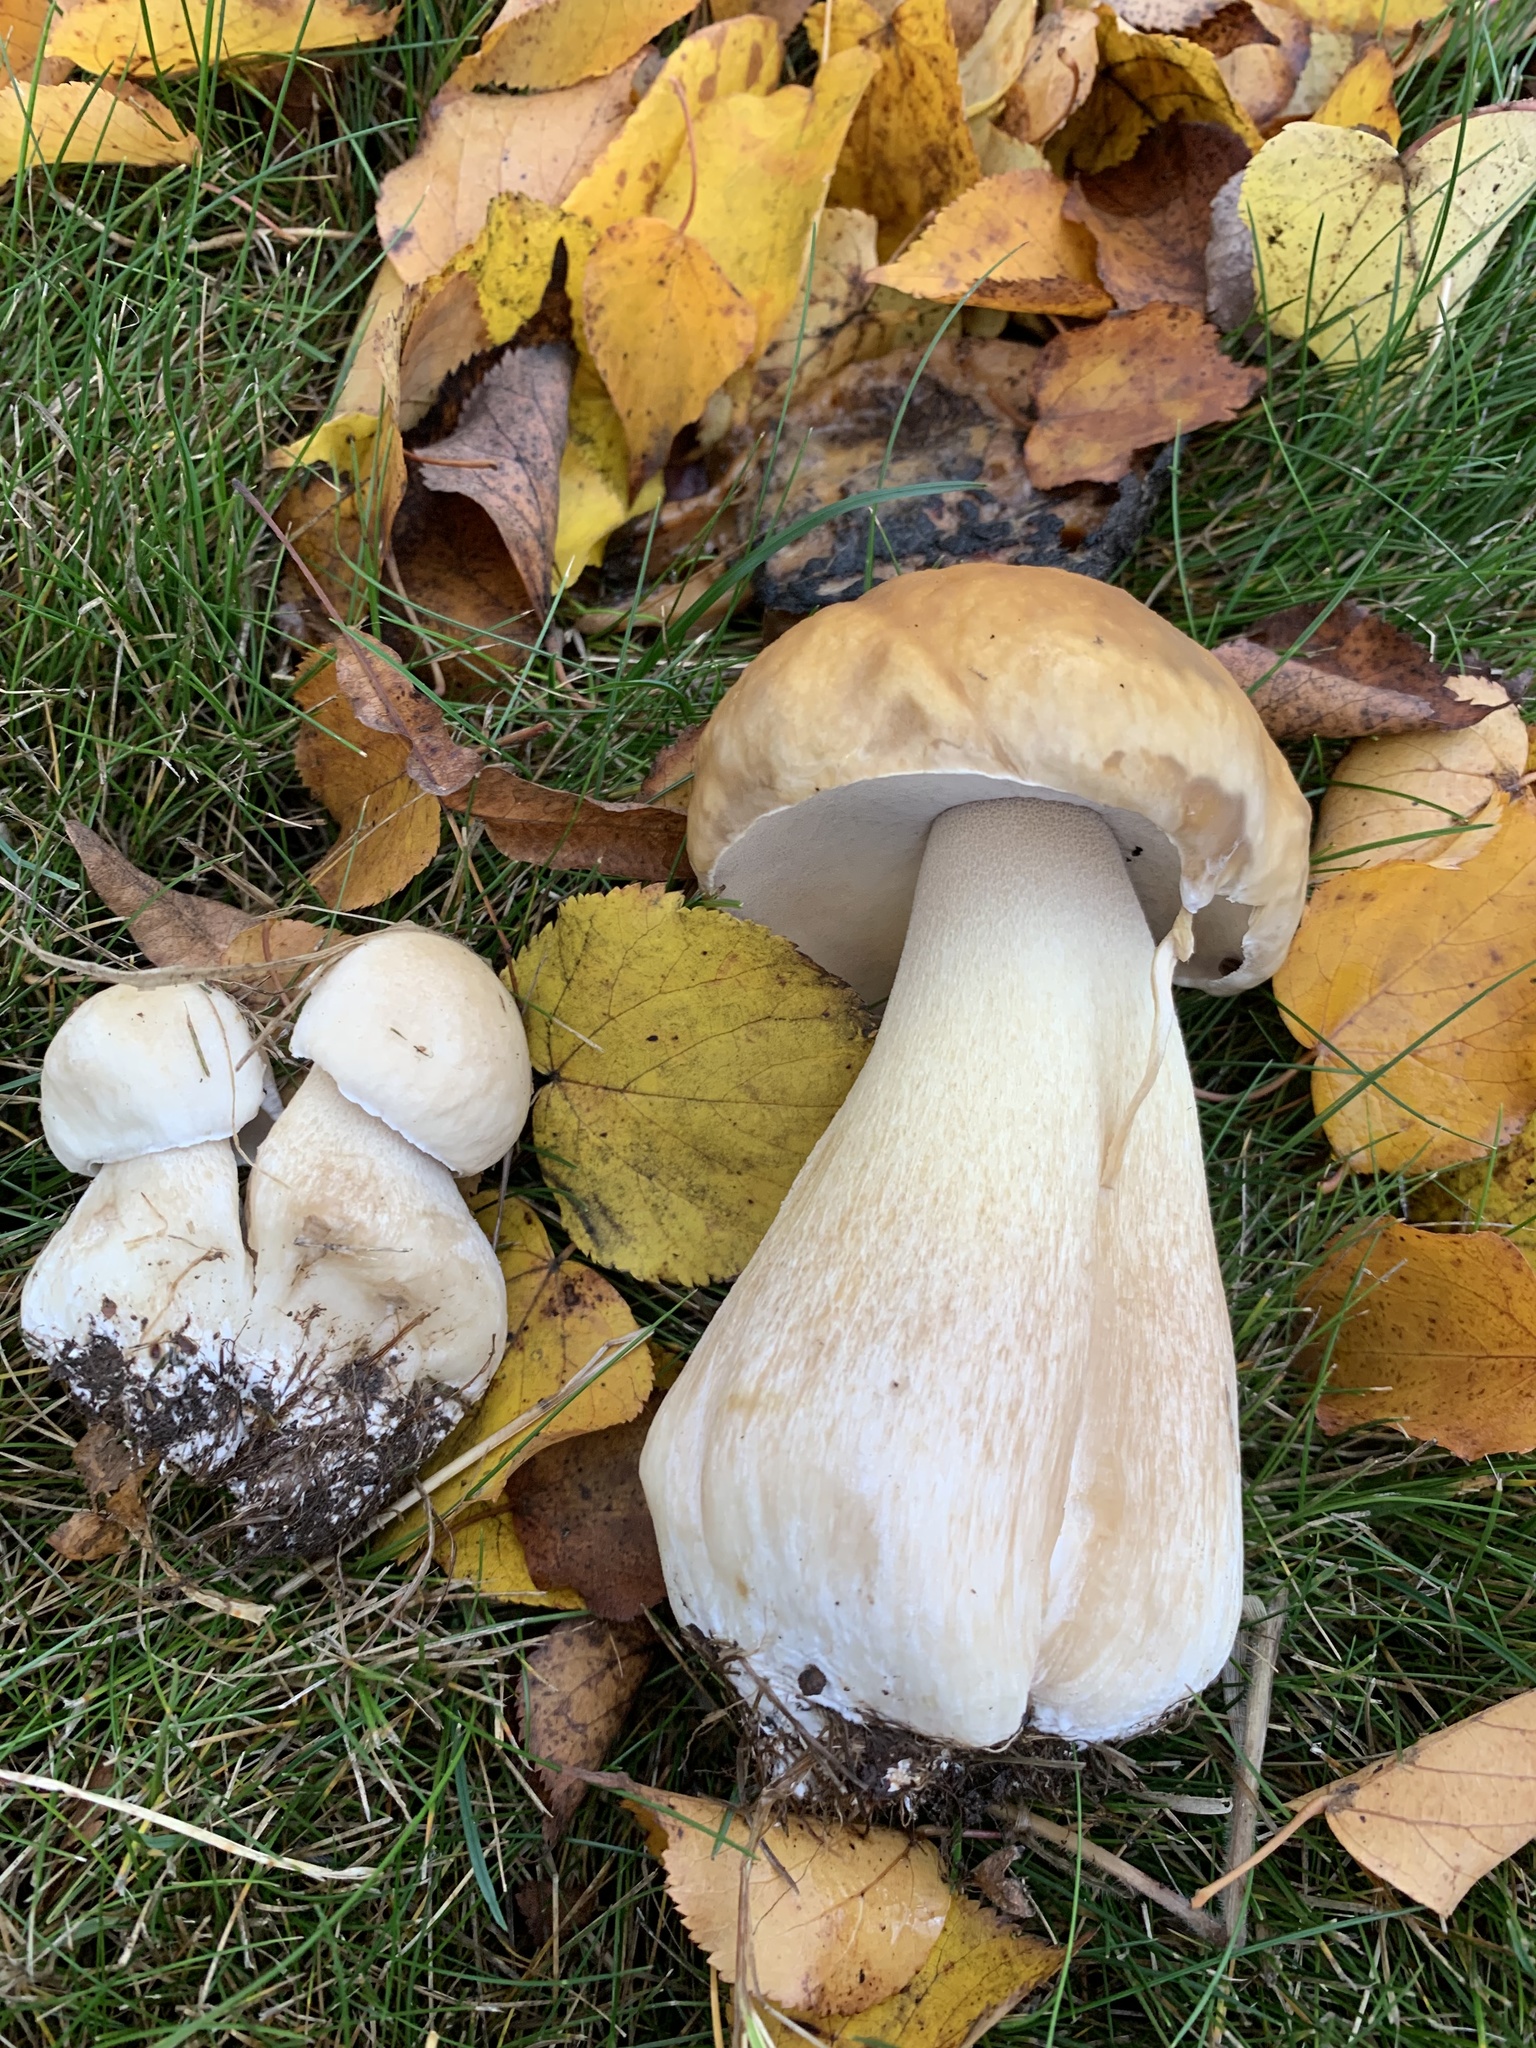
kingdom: Fungi
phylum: Basidiomycota
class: Agaricomycetes
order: Boletales
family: Boletaceae
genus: Boletus
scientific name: Boletus edulis
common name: Cep
